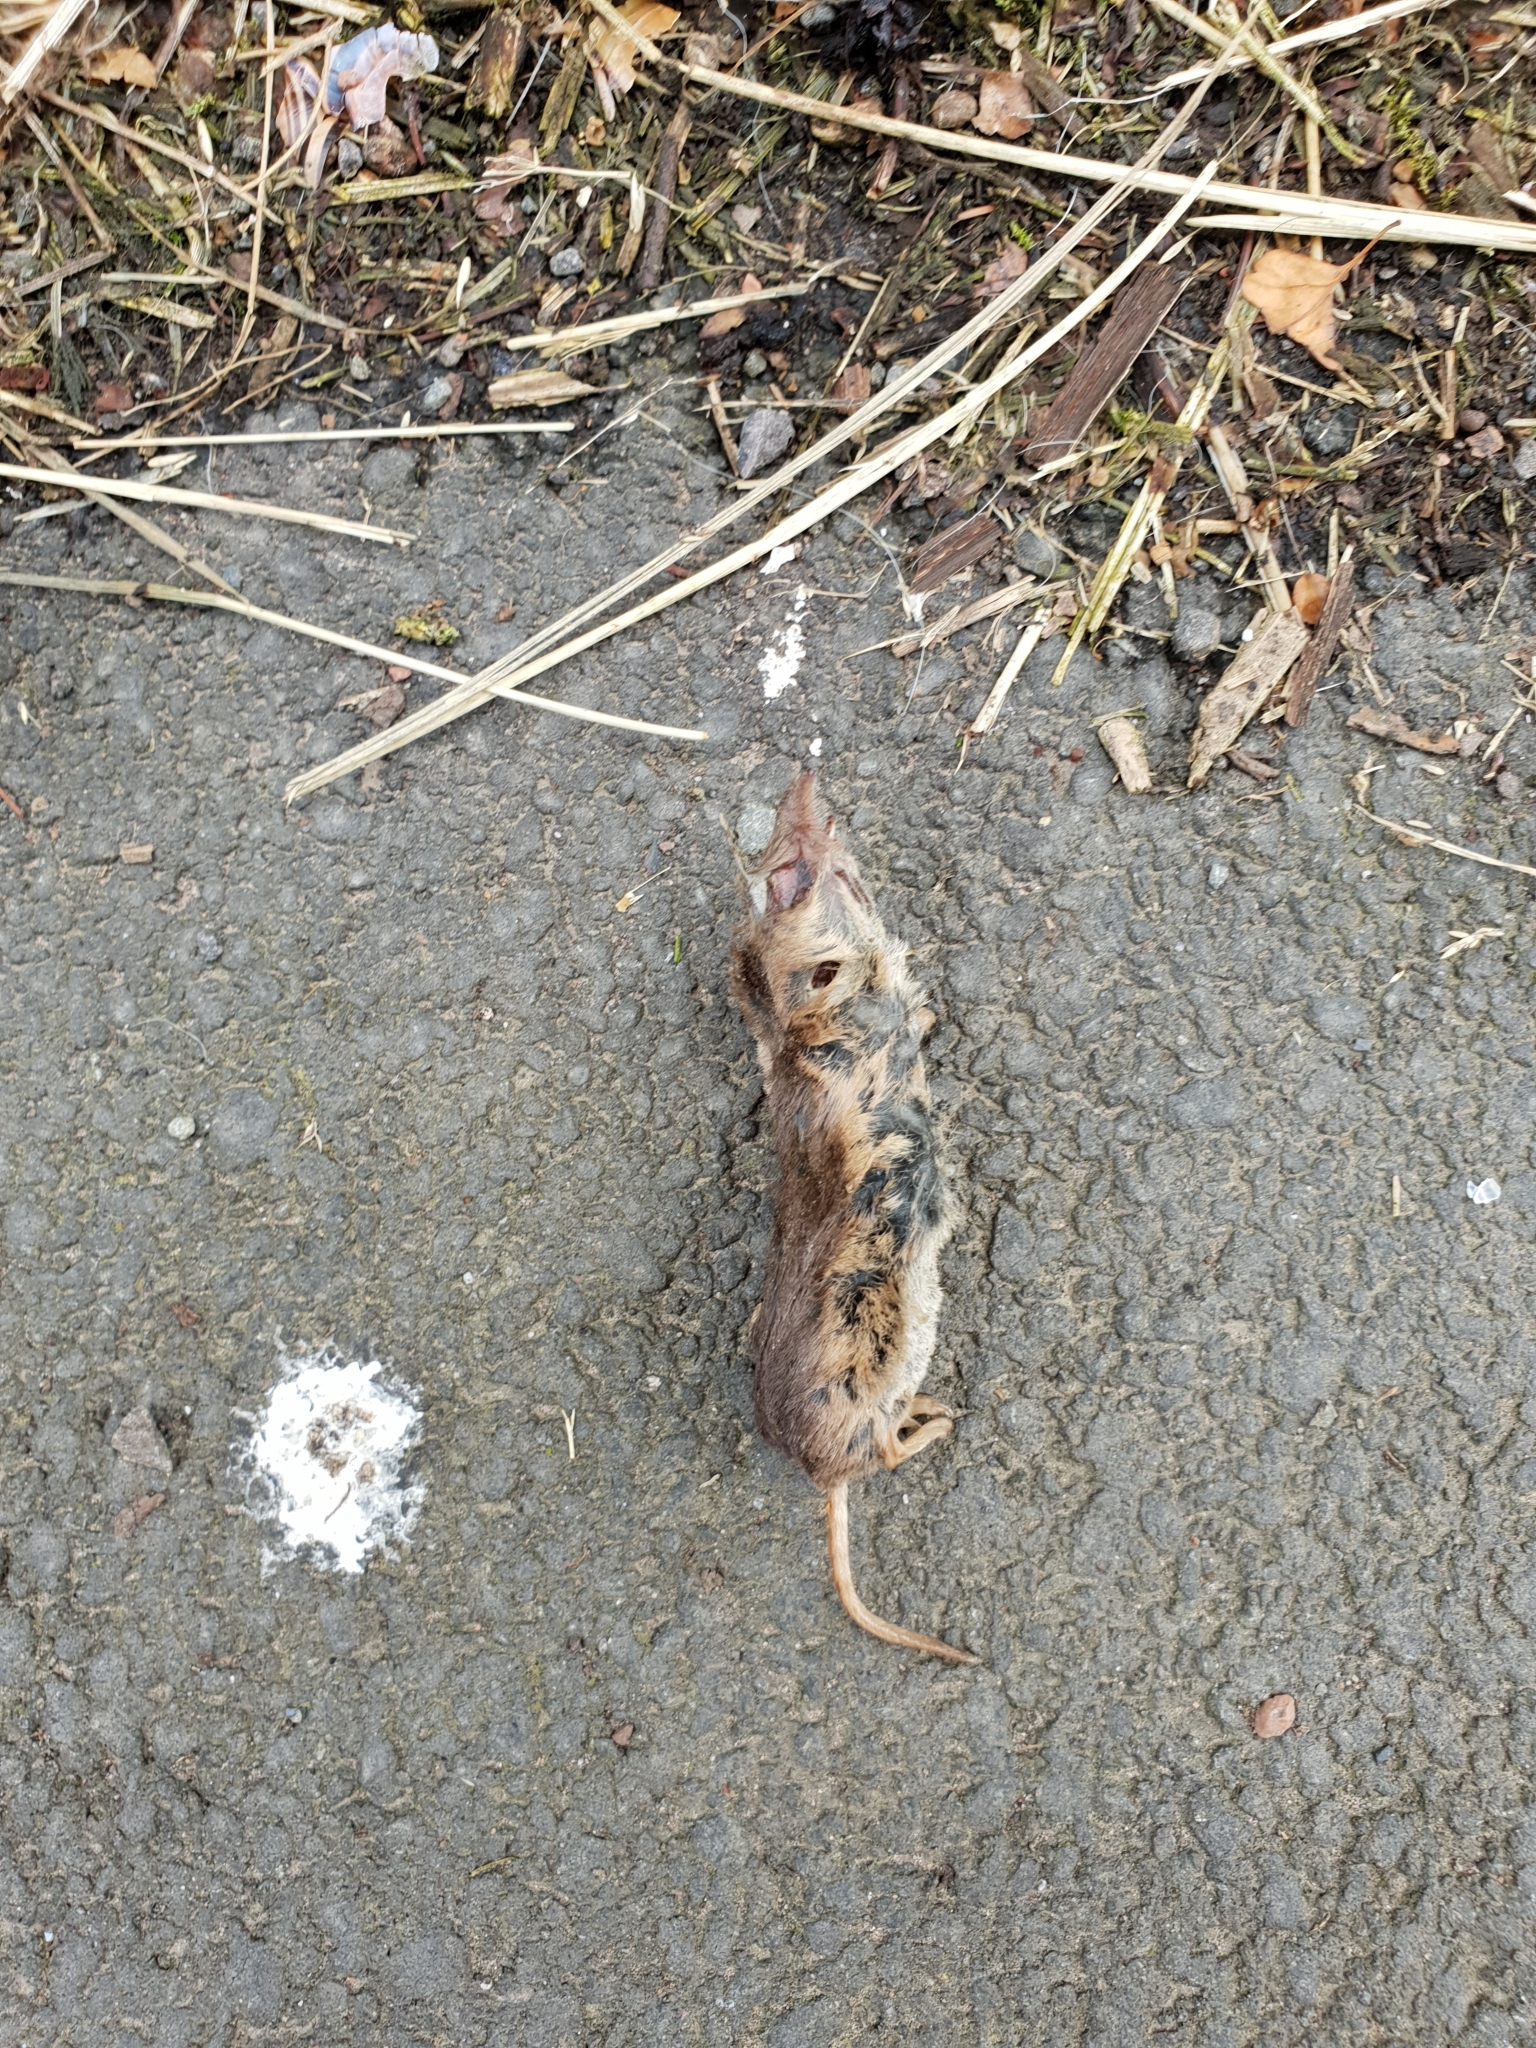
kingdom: Animalia
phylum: Chordata
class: Mammalia
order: Soricomorpha
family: Soricidae
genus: Sorex
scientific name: Sorex araneus
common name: Common shrew
